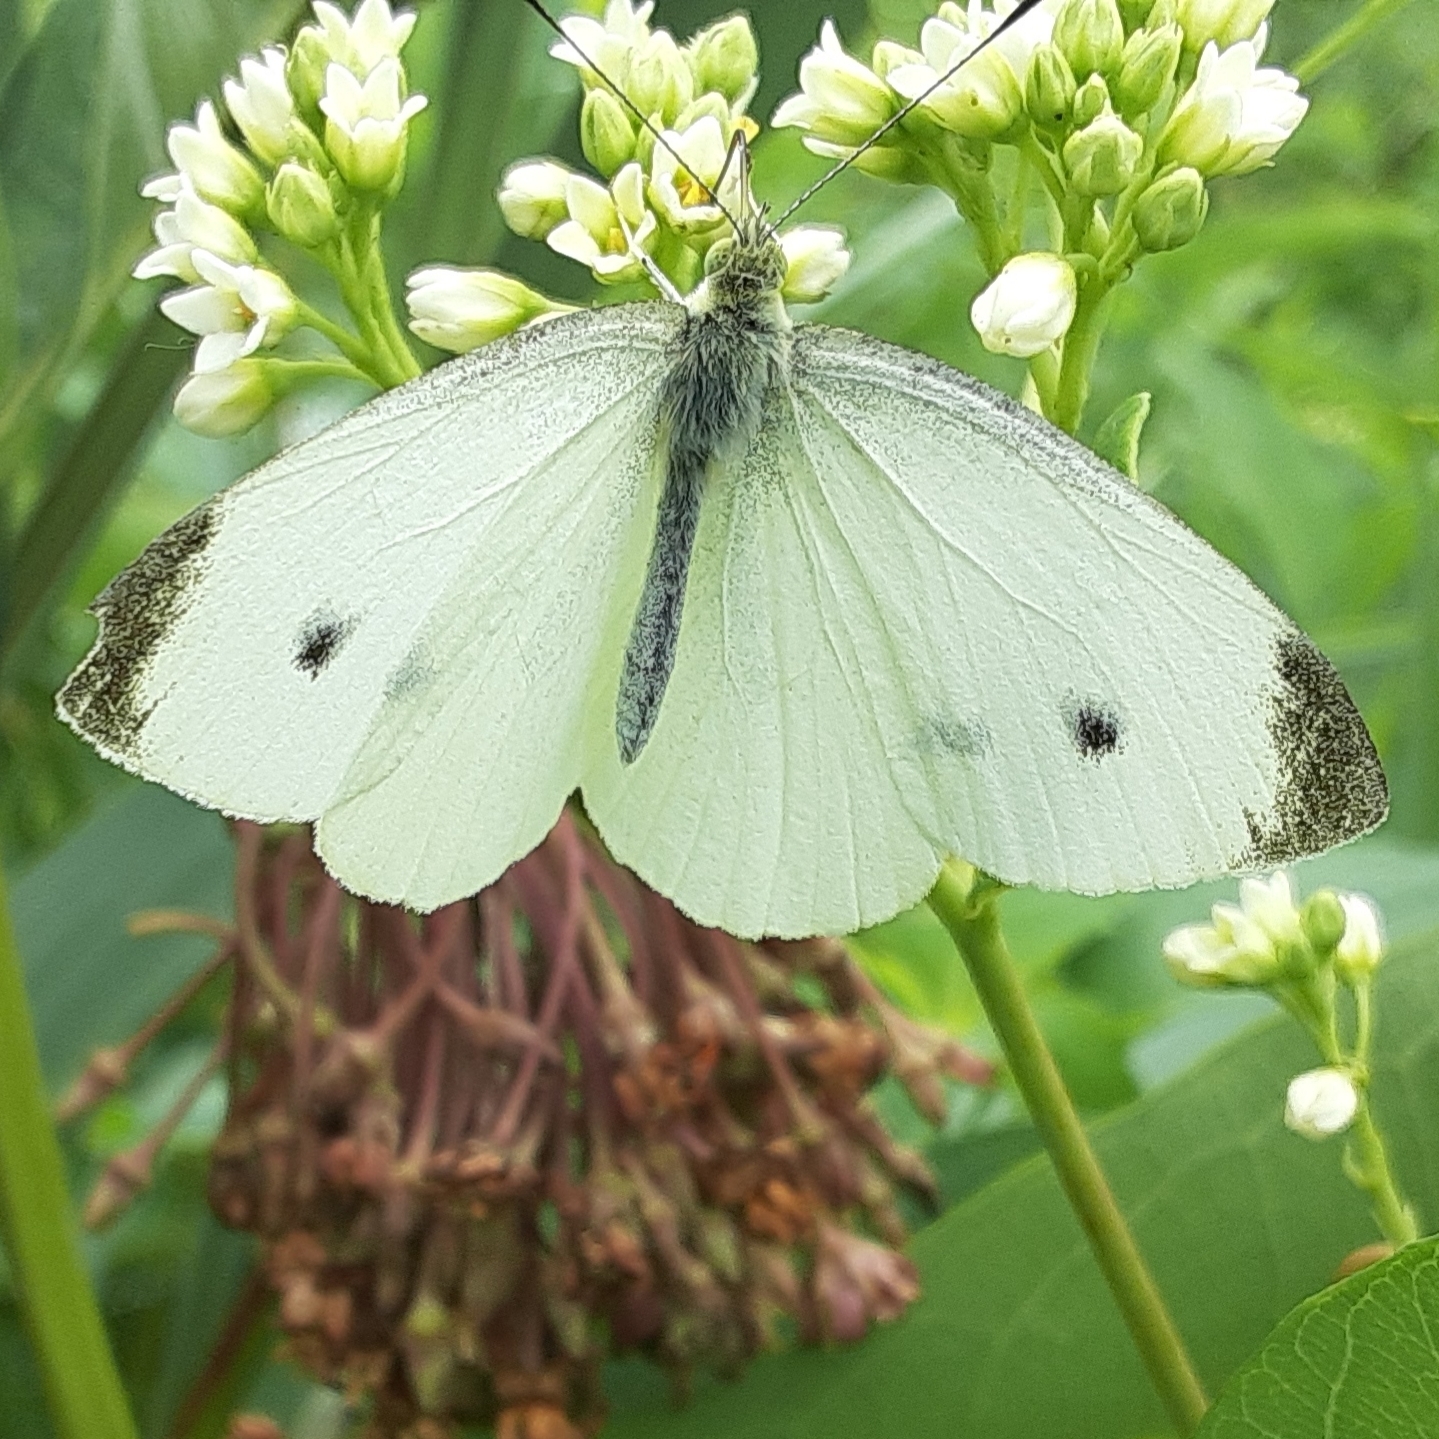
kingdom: Animalia
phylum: Arthropoda
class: Insecta
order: Lepidoptera
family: Pieridae
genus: Pieris
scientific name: Pieris rapae
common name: Small white
